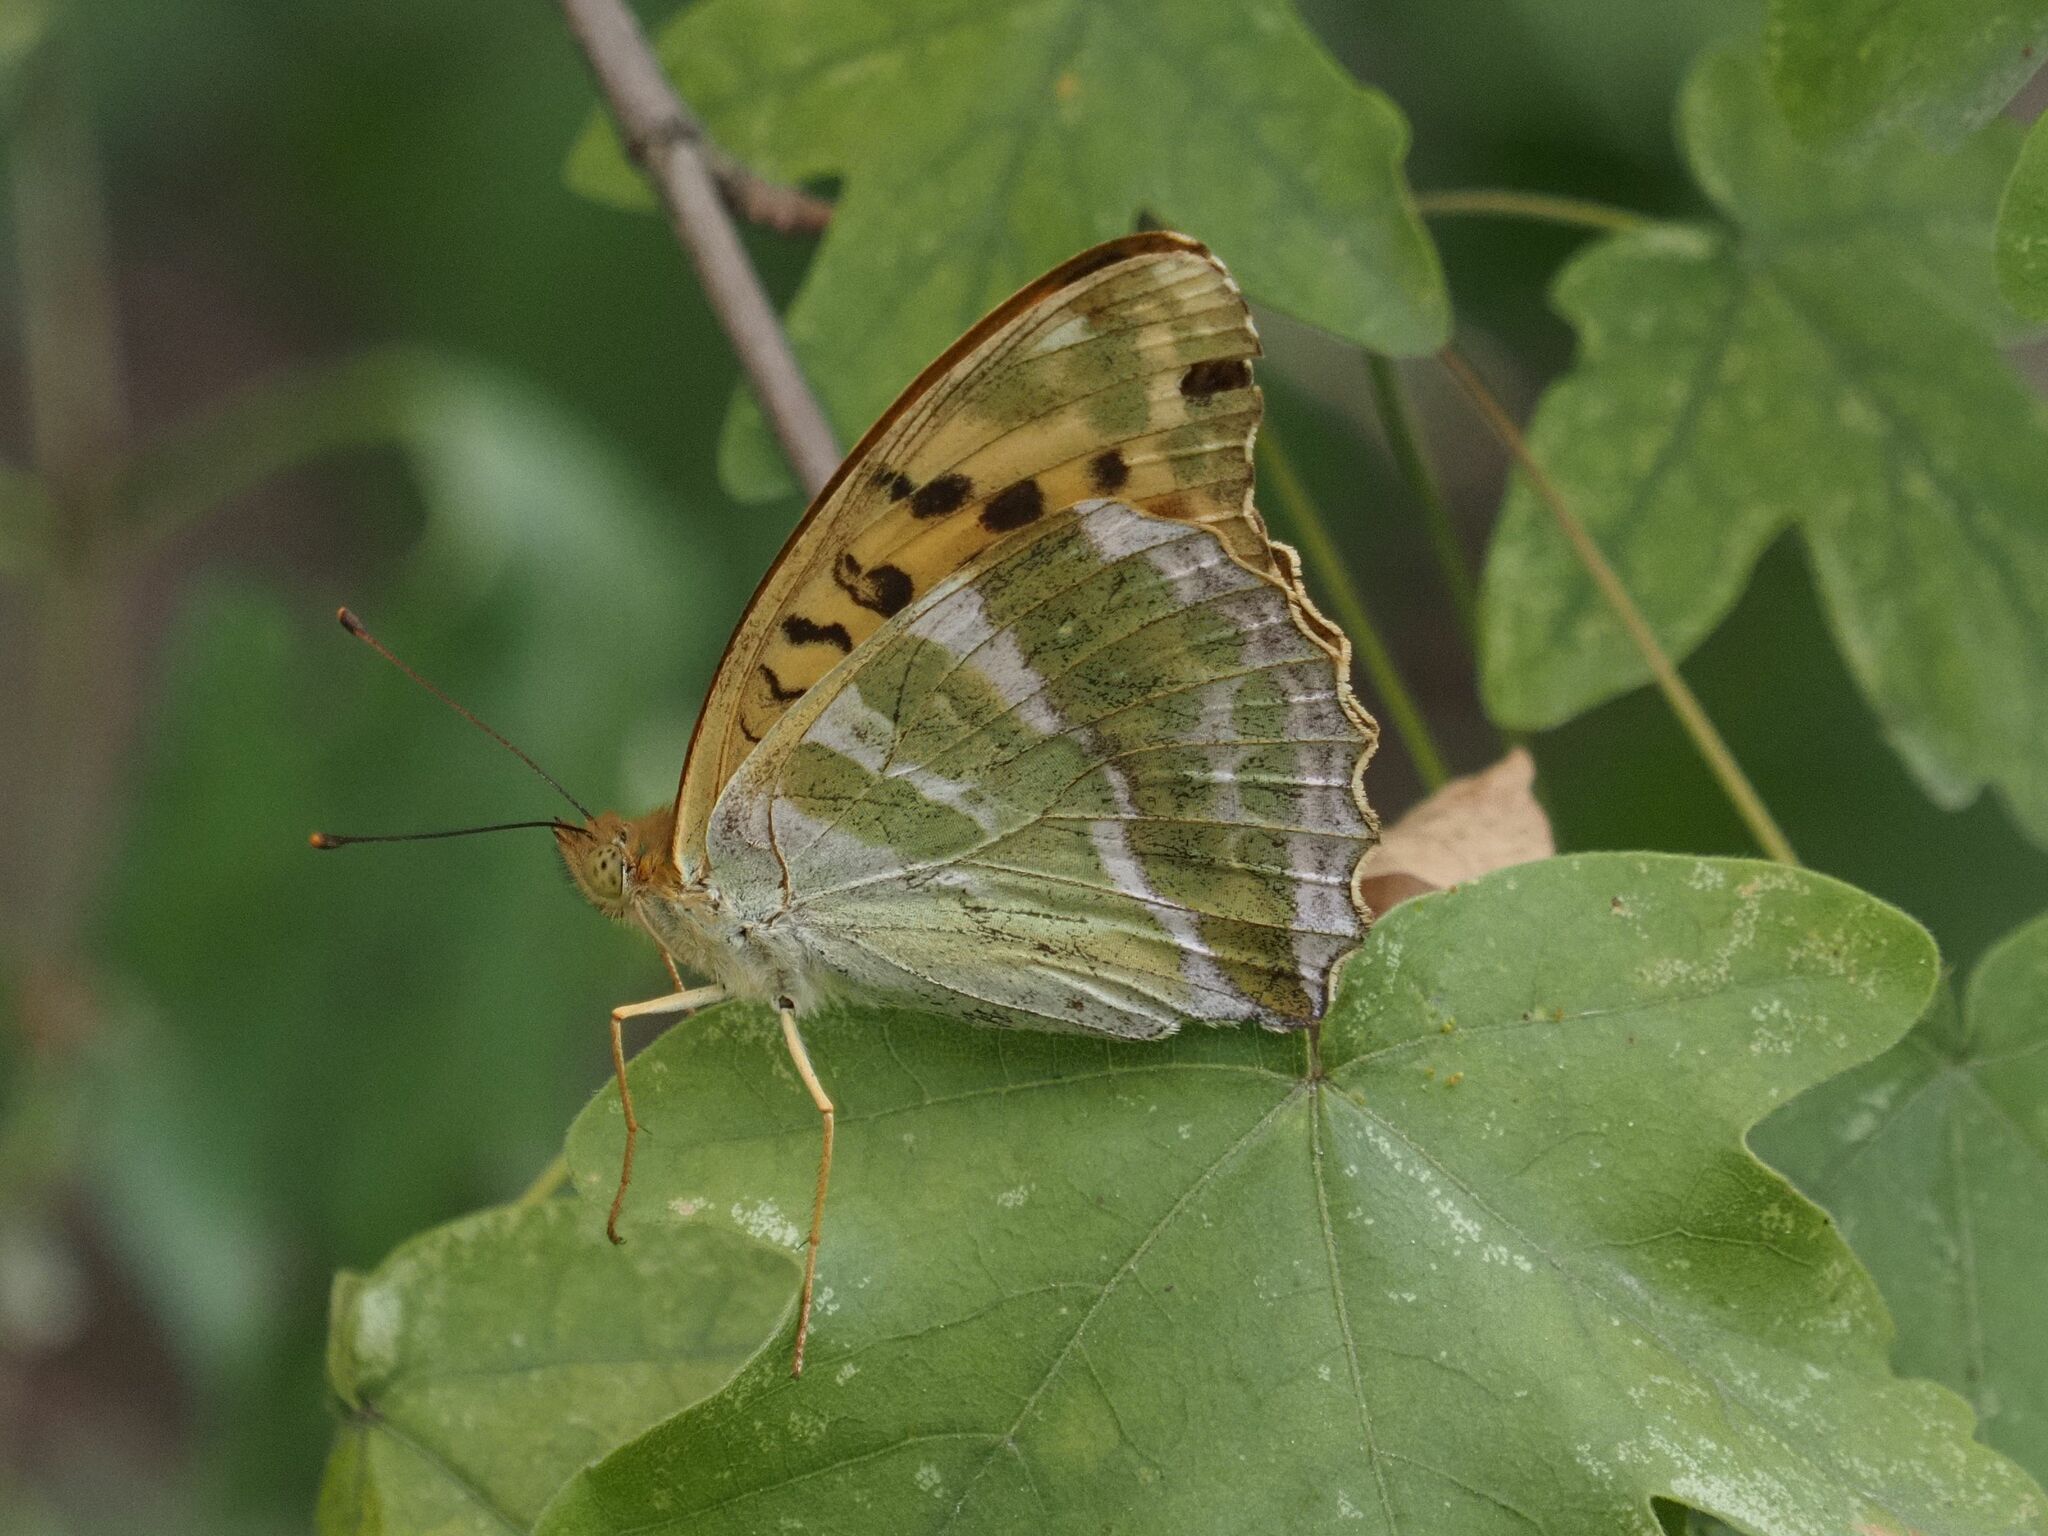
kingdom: Animalia
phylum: Arthropoda
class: Insecta
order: Lepidoptera
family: Nymphalidae
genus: Argynnis
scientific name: Argynnis paphia
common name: Silver-washed fritillary
